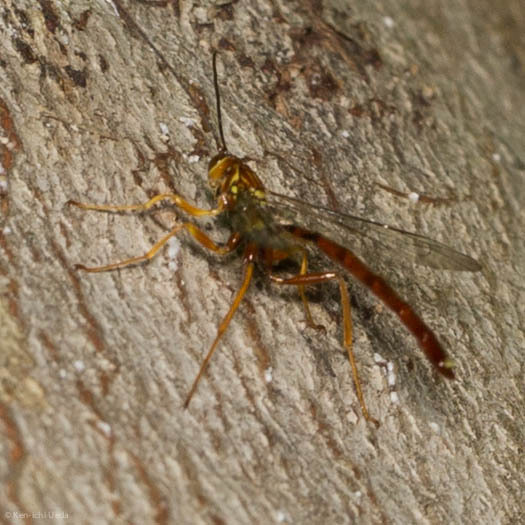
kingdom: Animalia
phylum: Arthropoda
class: Insecta
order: Hymenoptera
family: Ichneumonidae
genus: Megarhyssa
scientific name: Megarhyssa atrata
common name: Black giant ichneumonid wasp
